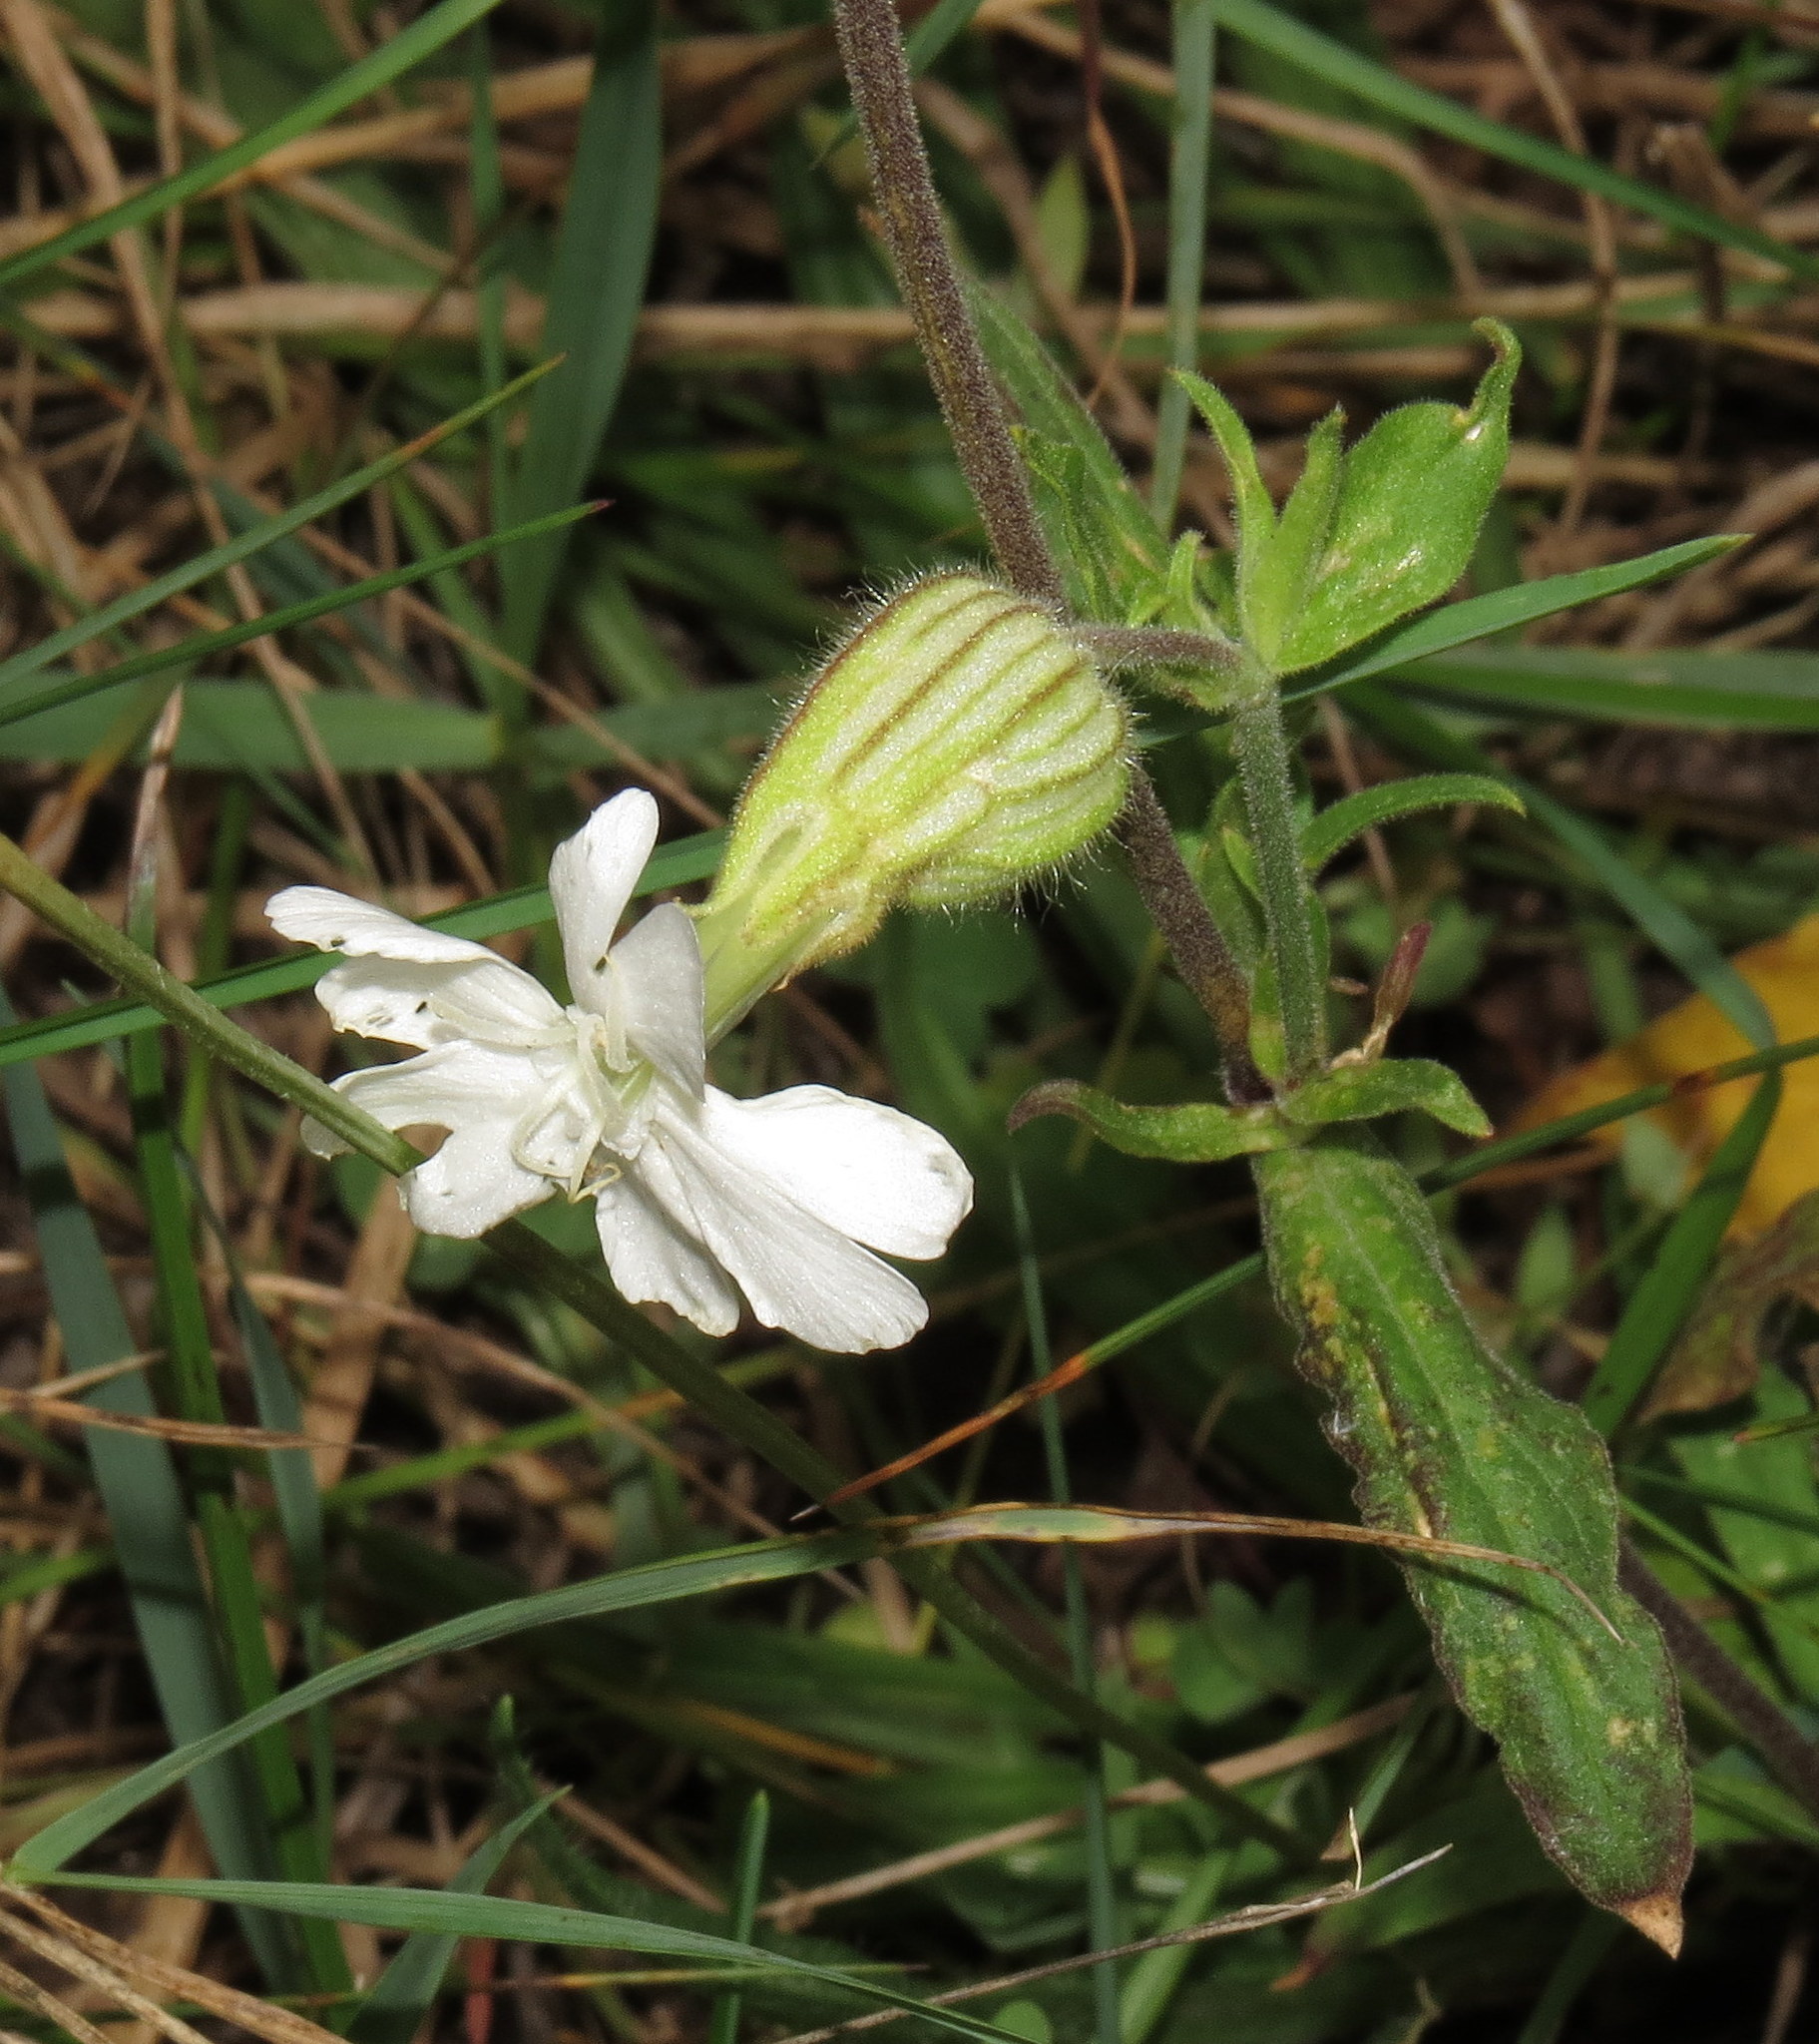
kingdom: Plantae
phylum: Tracheophyta
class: Magnoliopsida
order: Caryophyllales
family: Caryophyllaceae
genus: Silene
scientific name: Silene latifolia
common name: White campion
